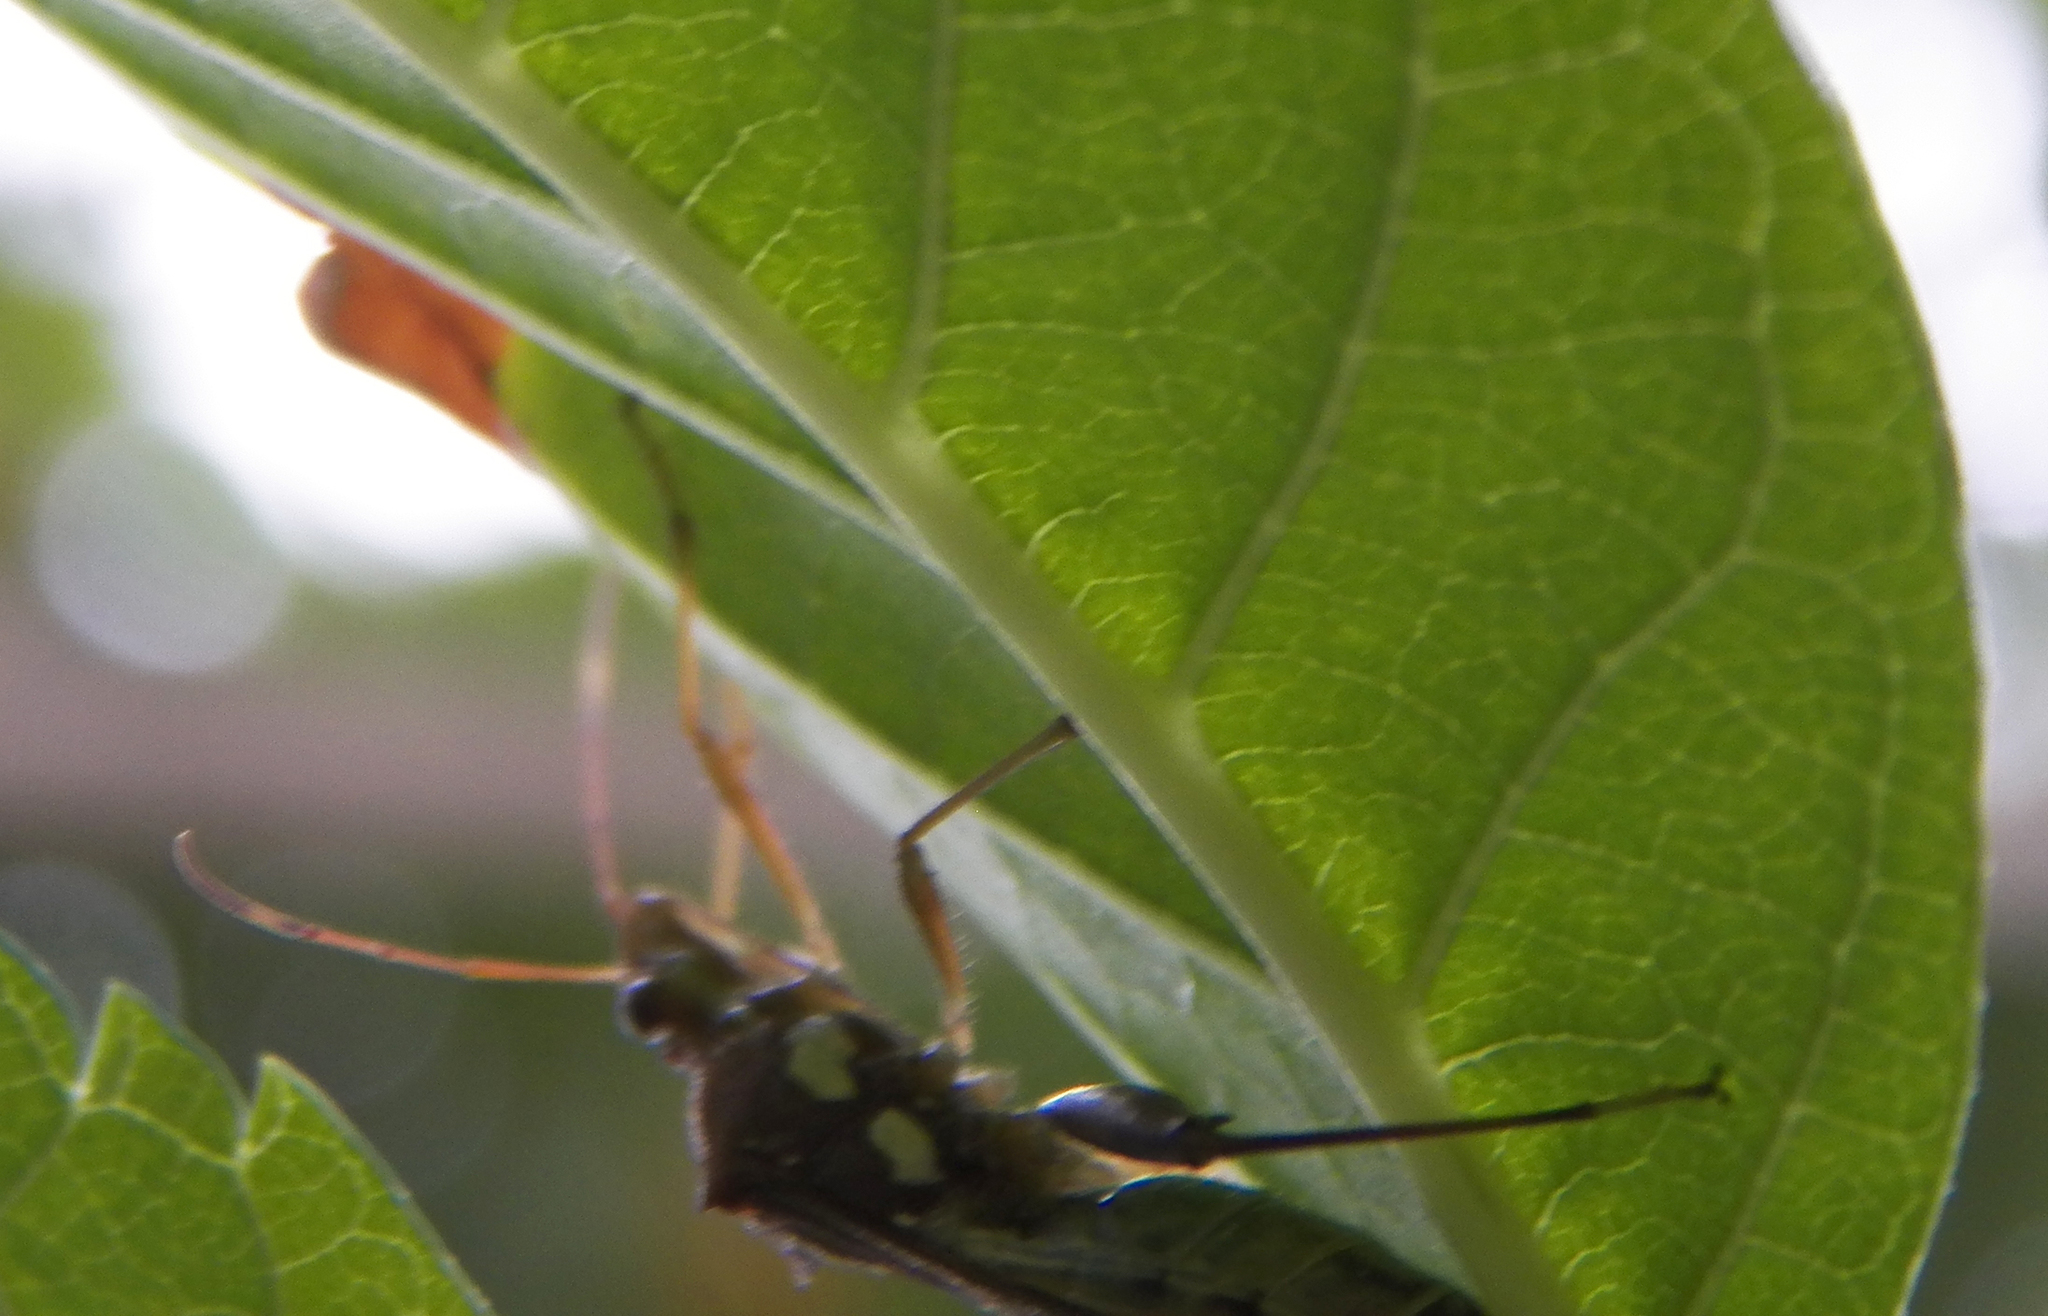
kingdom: Animalia
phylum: Arthropoda
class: Insecta
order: Hemiptera
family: Alydidae
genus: Hyalymenus
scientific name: Hyalymenus tarsatus
